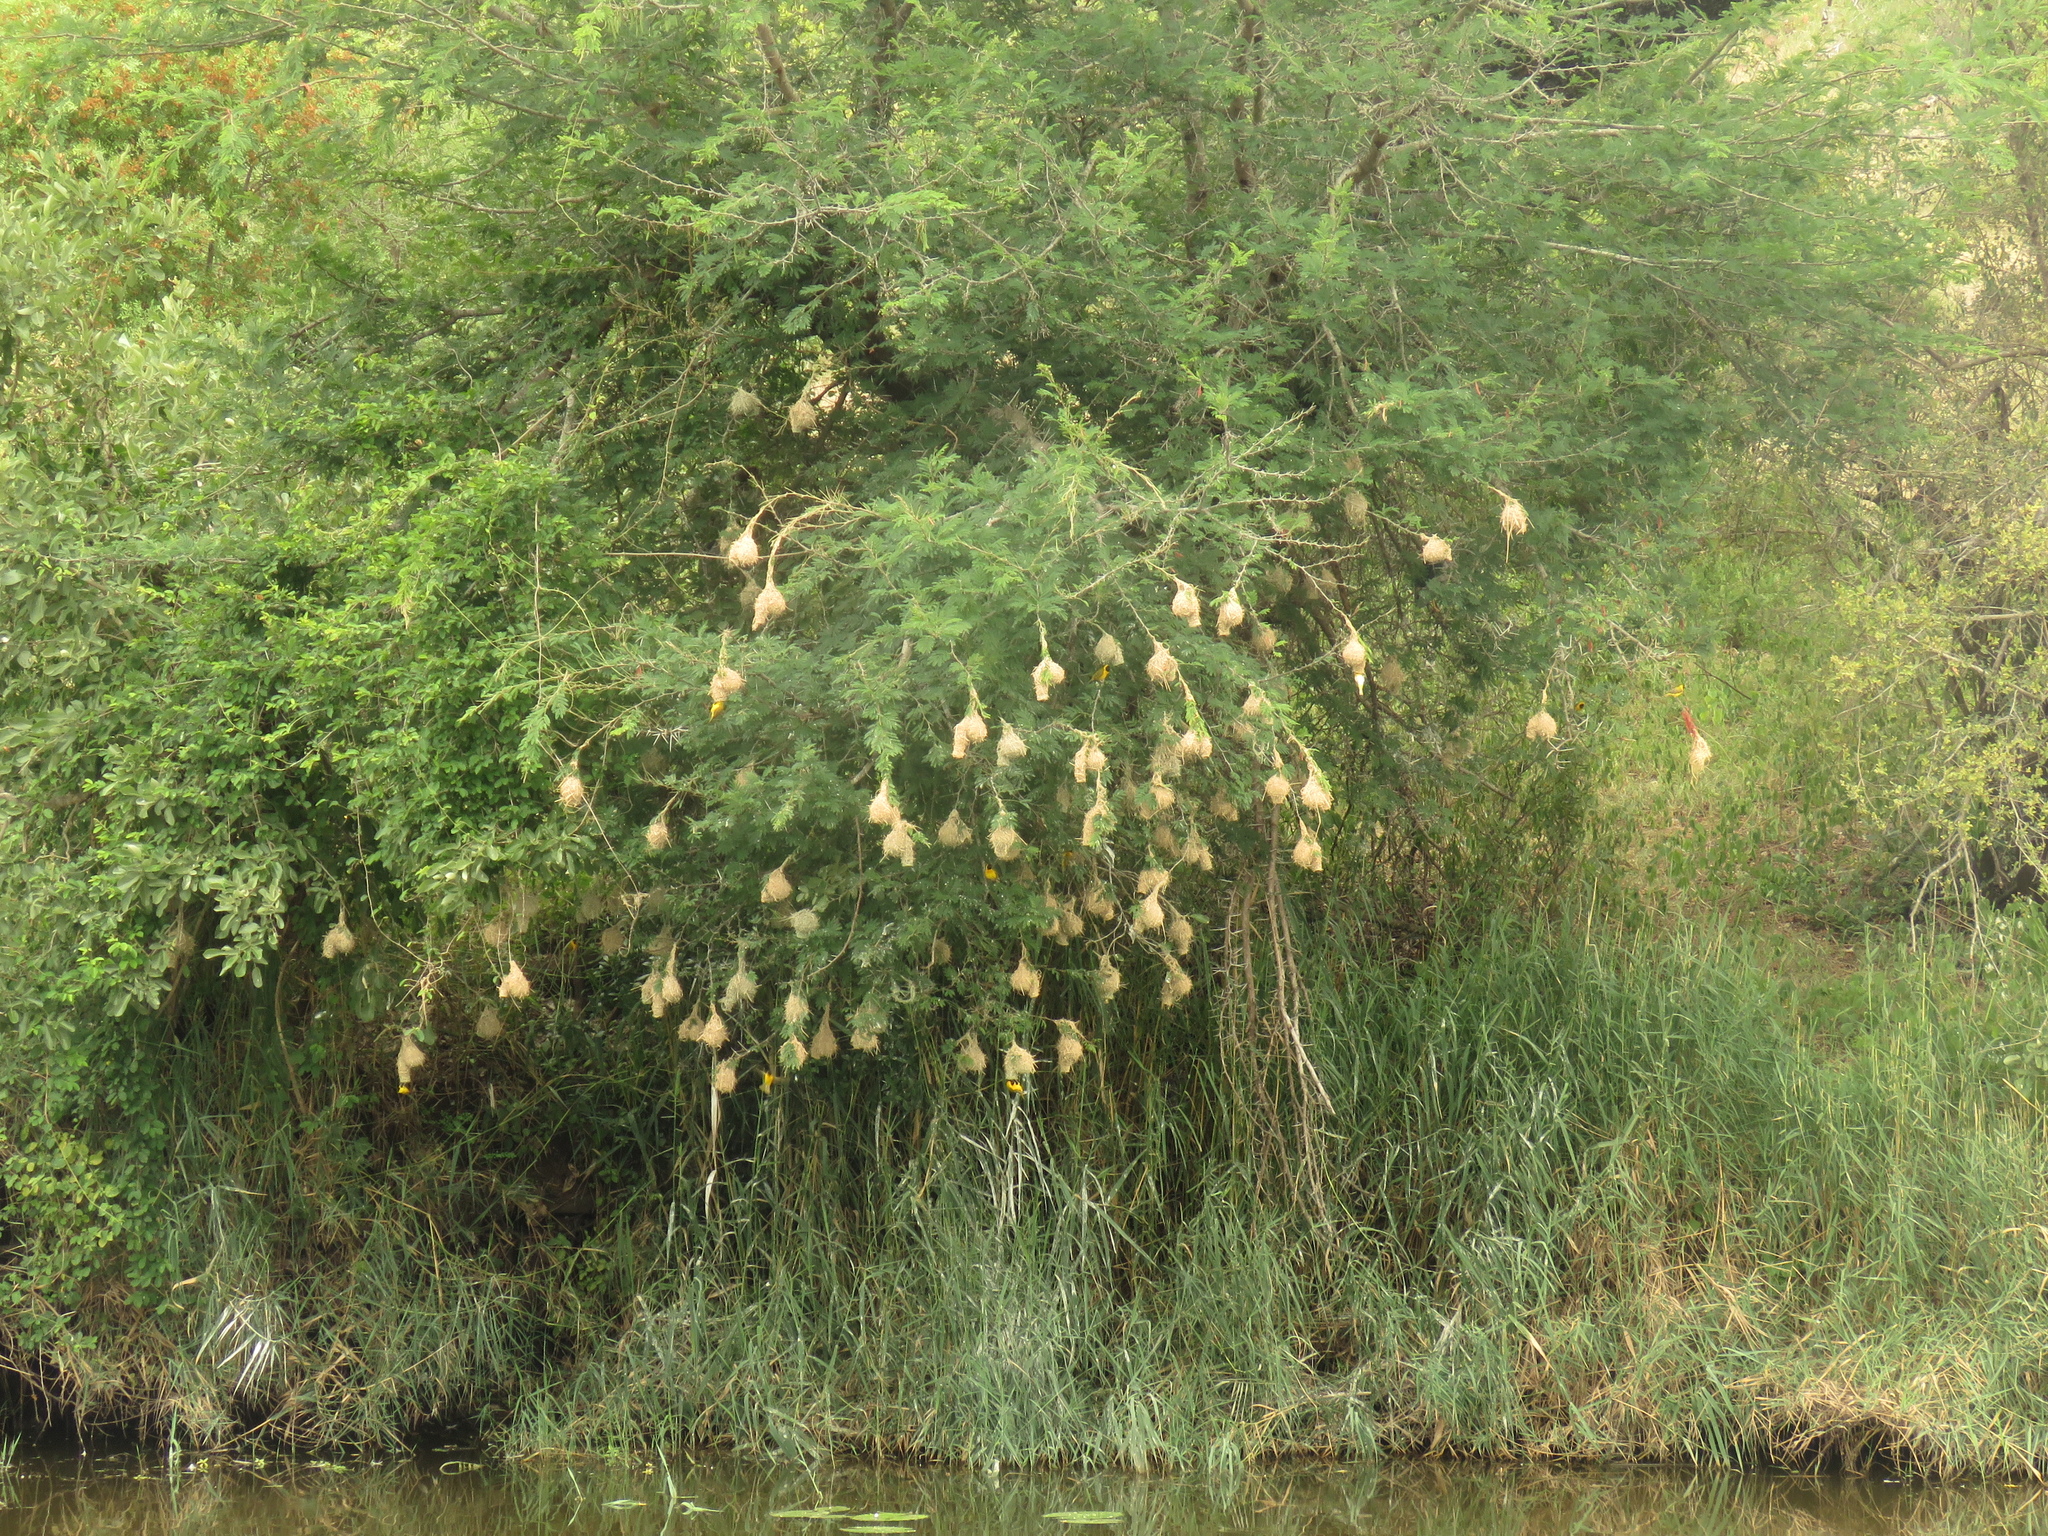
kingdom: Animalia
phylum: Chordata
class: Aves
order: Passeriformes
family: Ploceidae
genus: Ploceus
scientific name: Ploceus intermedius
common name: Lesser masked weaver
